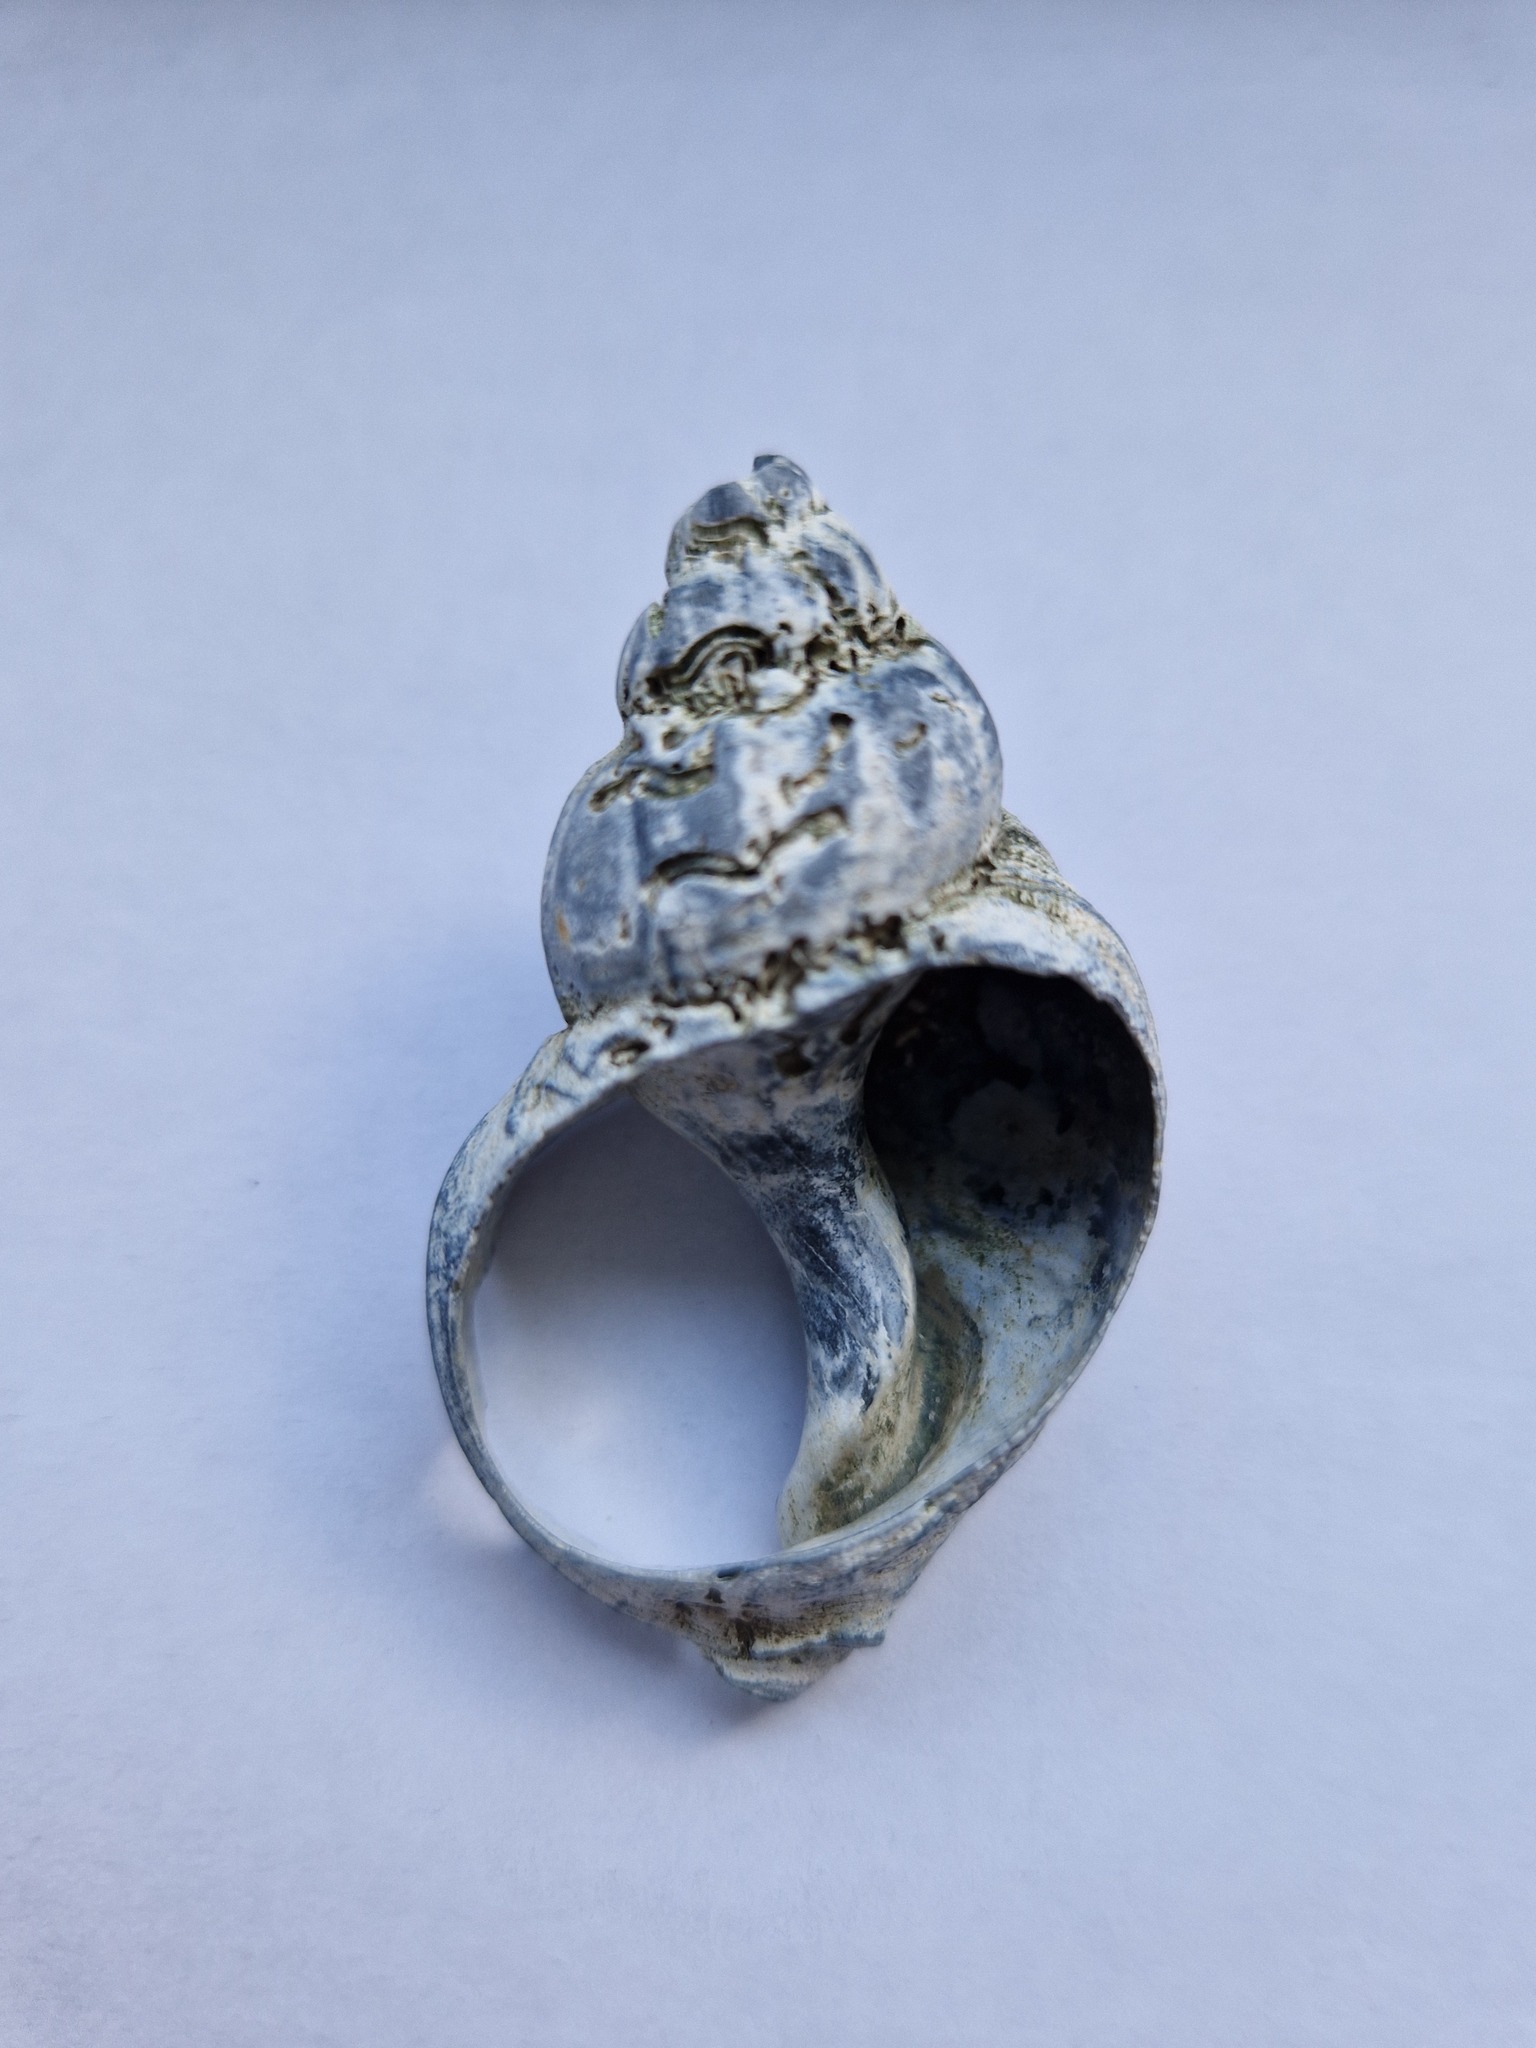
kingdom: Animalia
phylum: Mollusca
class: Gastropoda
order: Neogastropoda
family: Buccinidae
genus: Buccinum
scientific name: Buccinum undatum
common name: Common whelk
